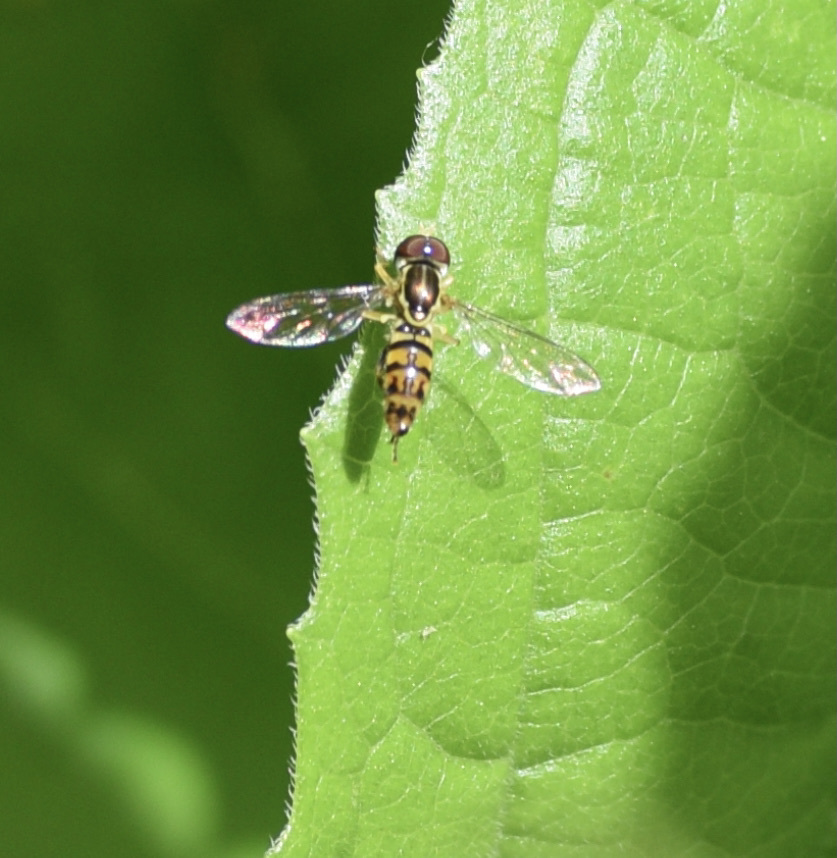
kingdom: Animalia
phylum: Arthropoda
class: Insecta
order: Diptera
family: Syrphidae
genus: Toxomerus
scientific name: Toxomerus geminatus
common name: Eastern calligrapher
